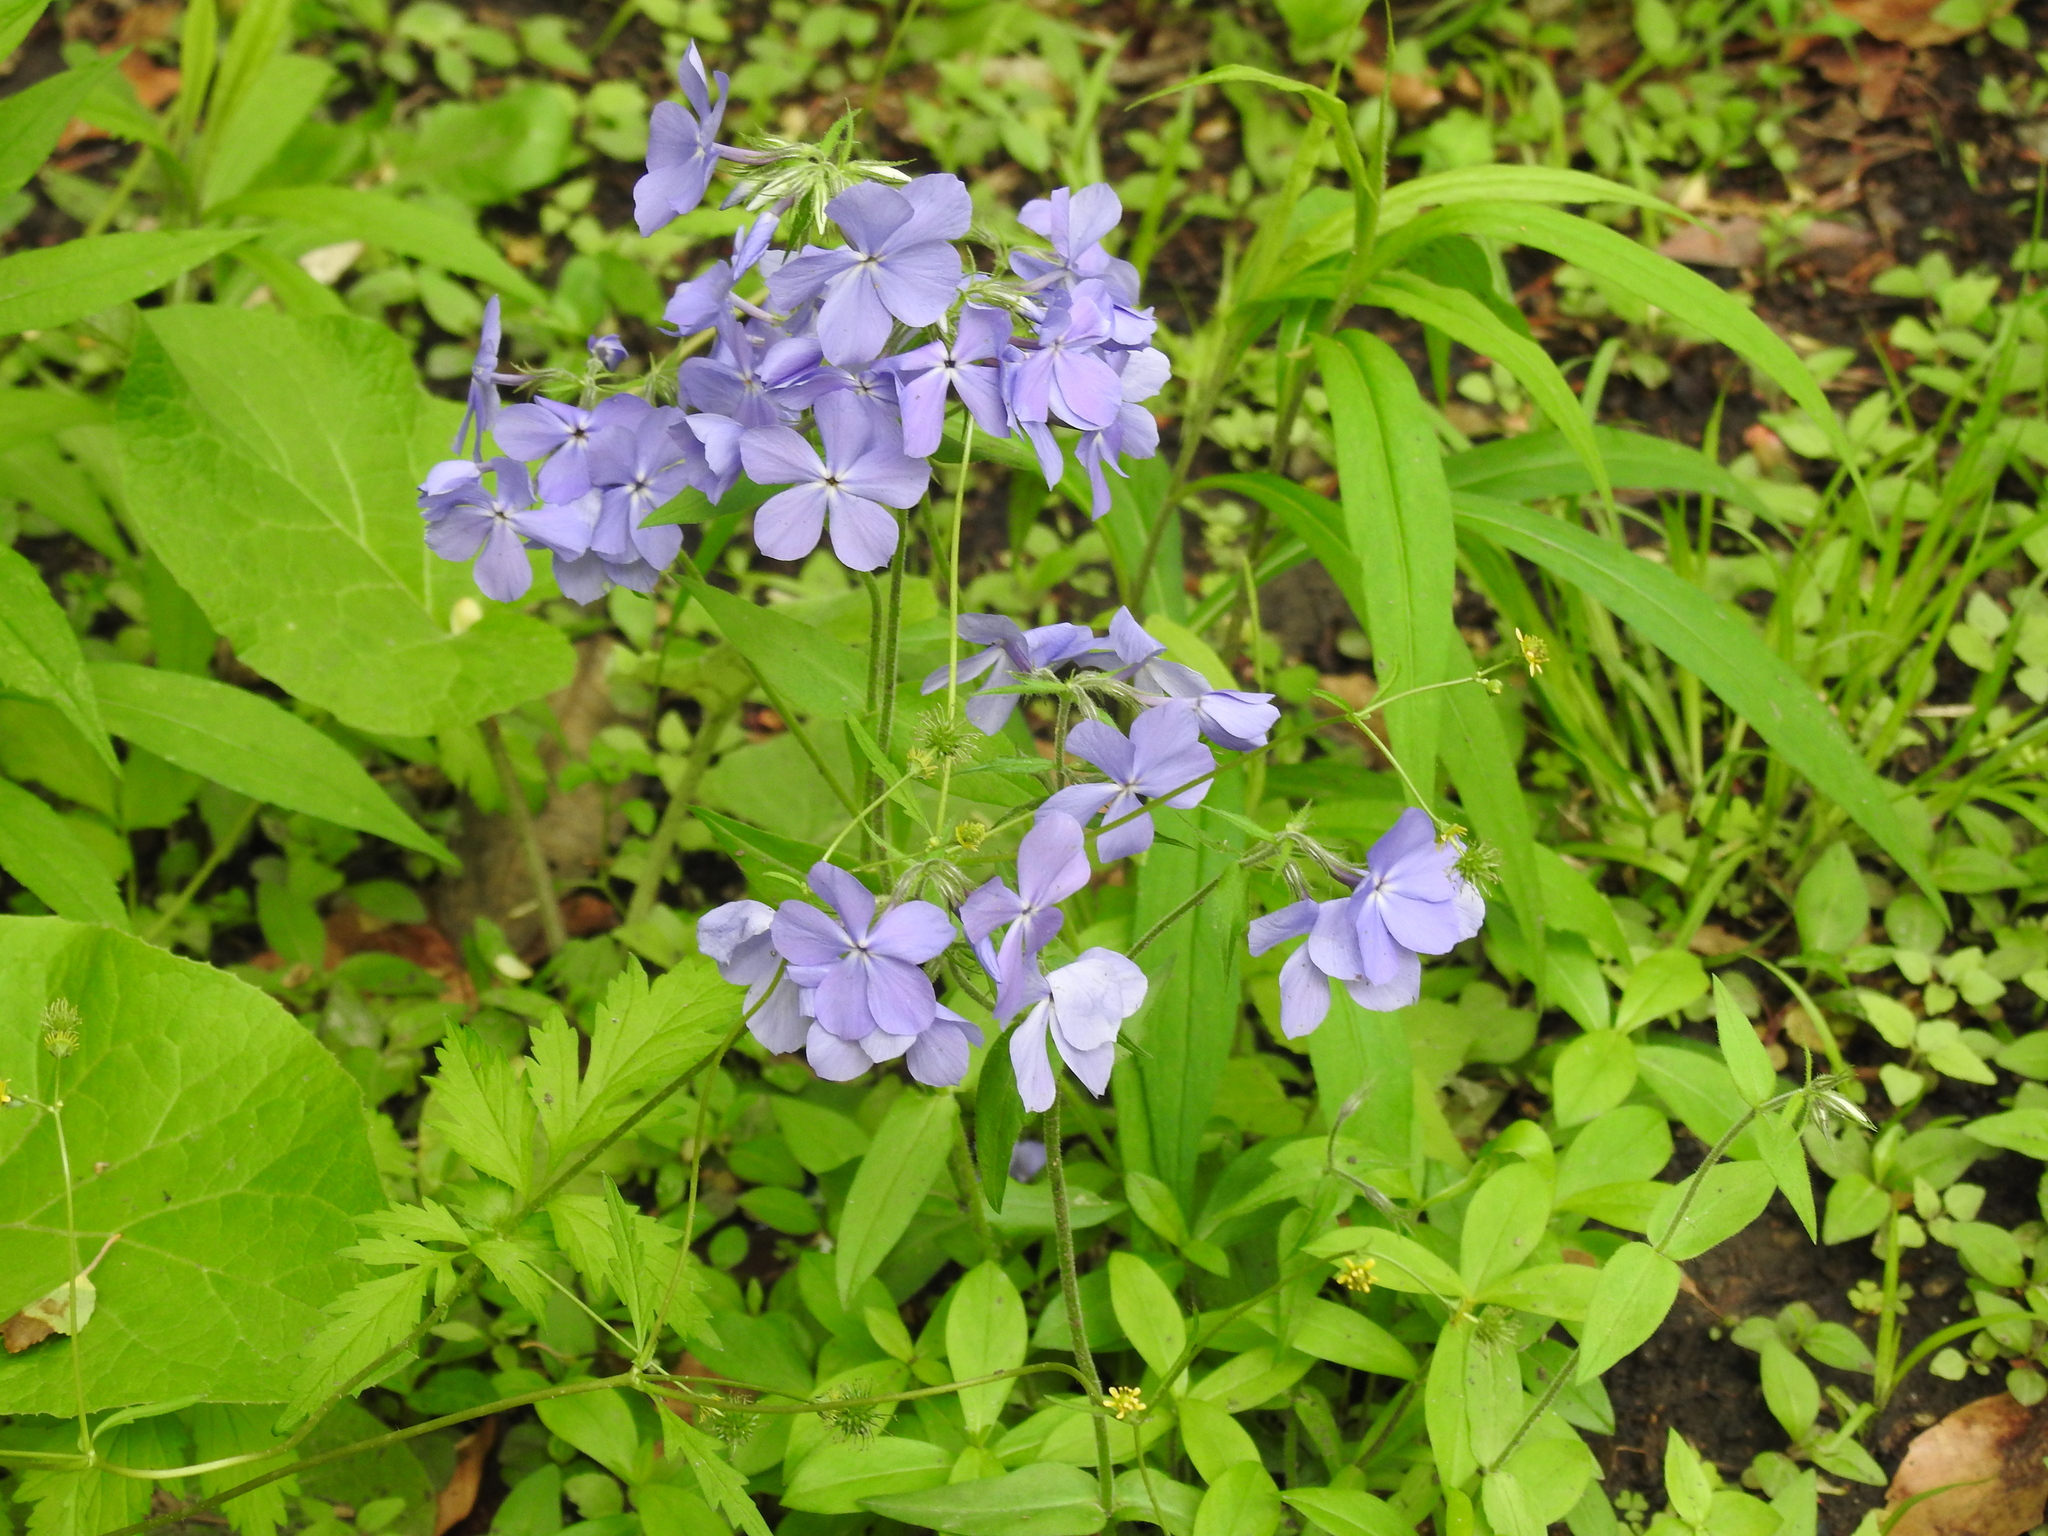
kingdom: Plantae
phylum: Tracheophyta
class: Magnoliopsida
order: Ericales
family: Polemoniaceae
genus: Phlox
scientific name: Phlox divaricata
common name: Blue phlox
